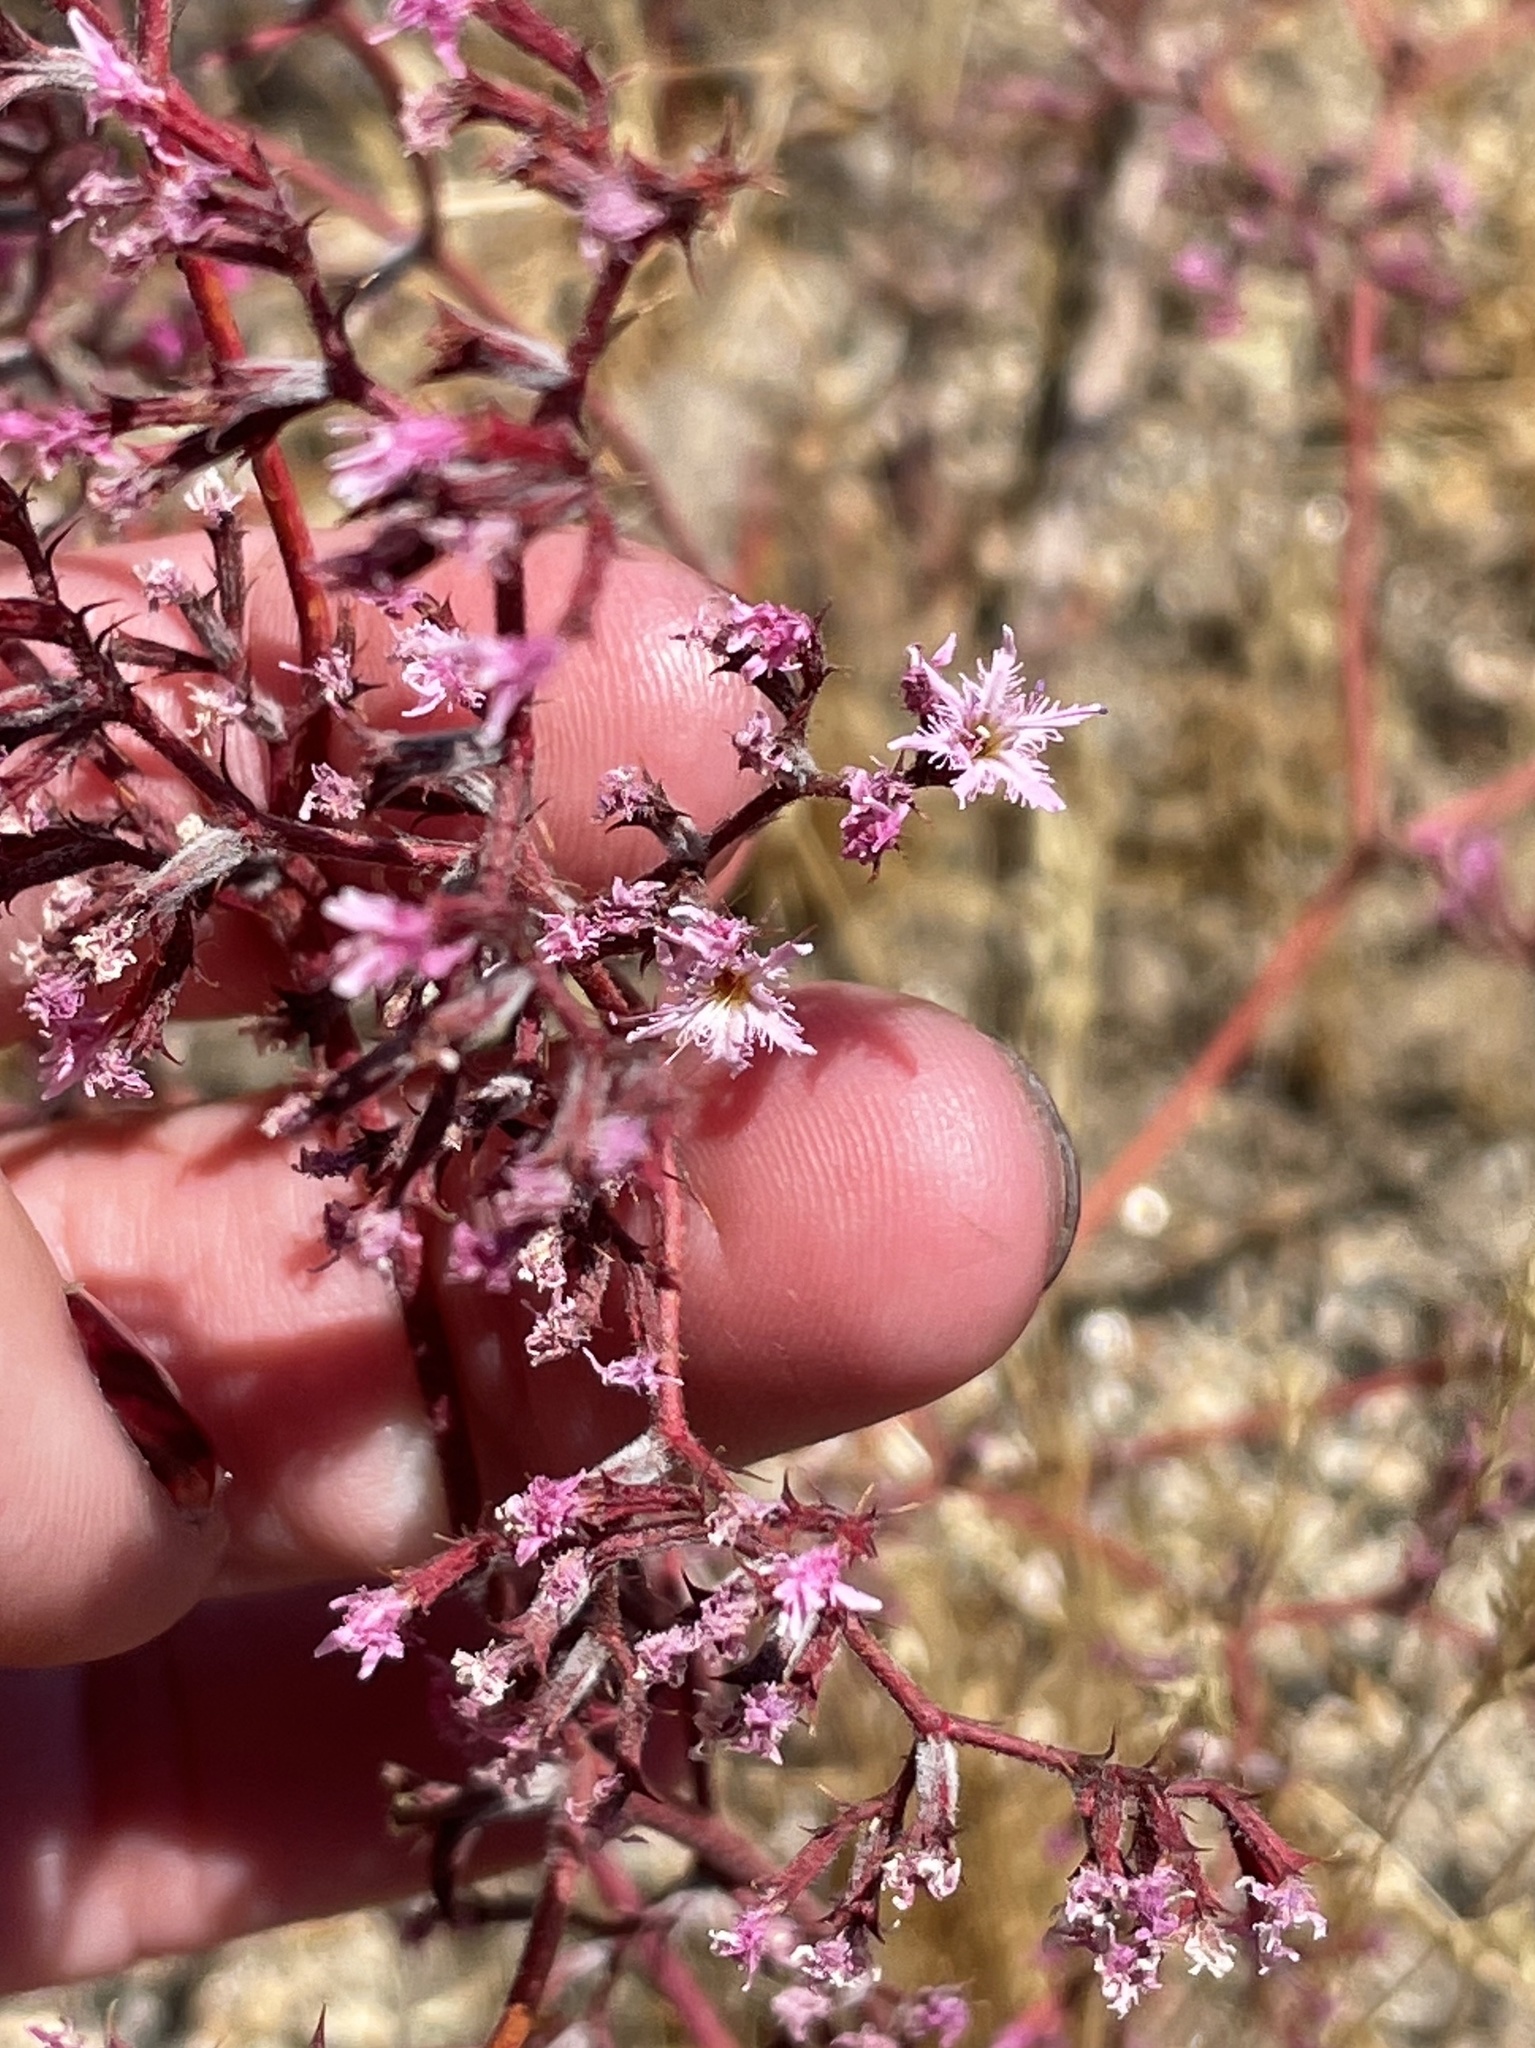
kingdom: Plantae
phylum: Tracheophyta
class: Magnoliopsida
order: Caryophyllales
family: Polygonaceae
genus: Chorizanthe
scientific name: Chorizanthe fimbriata
